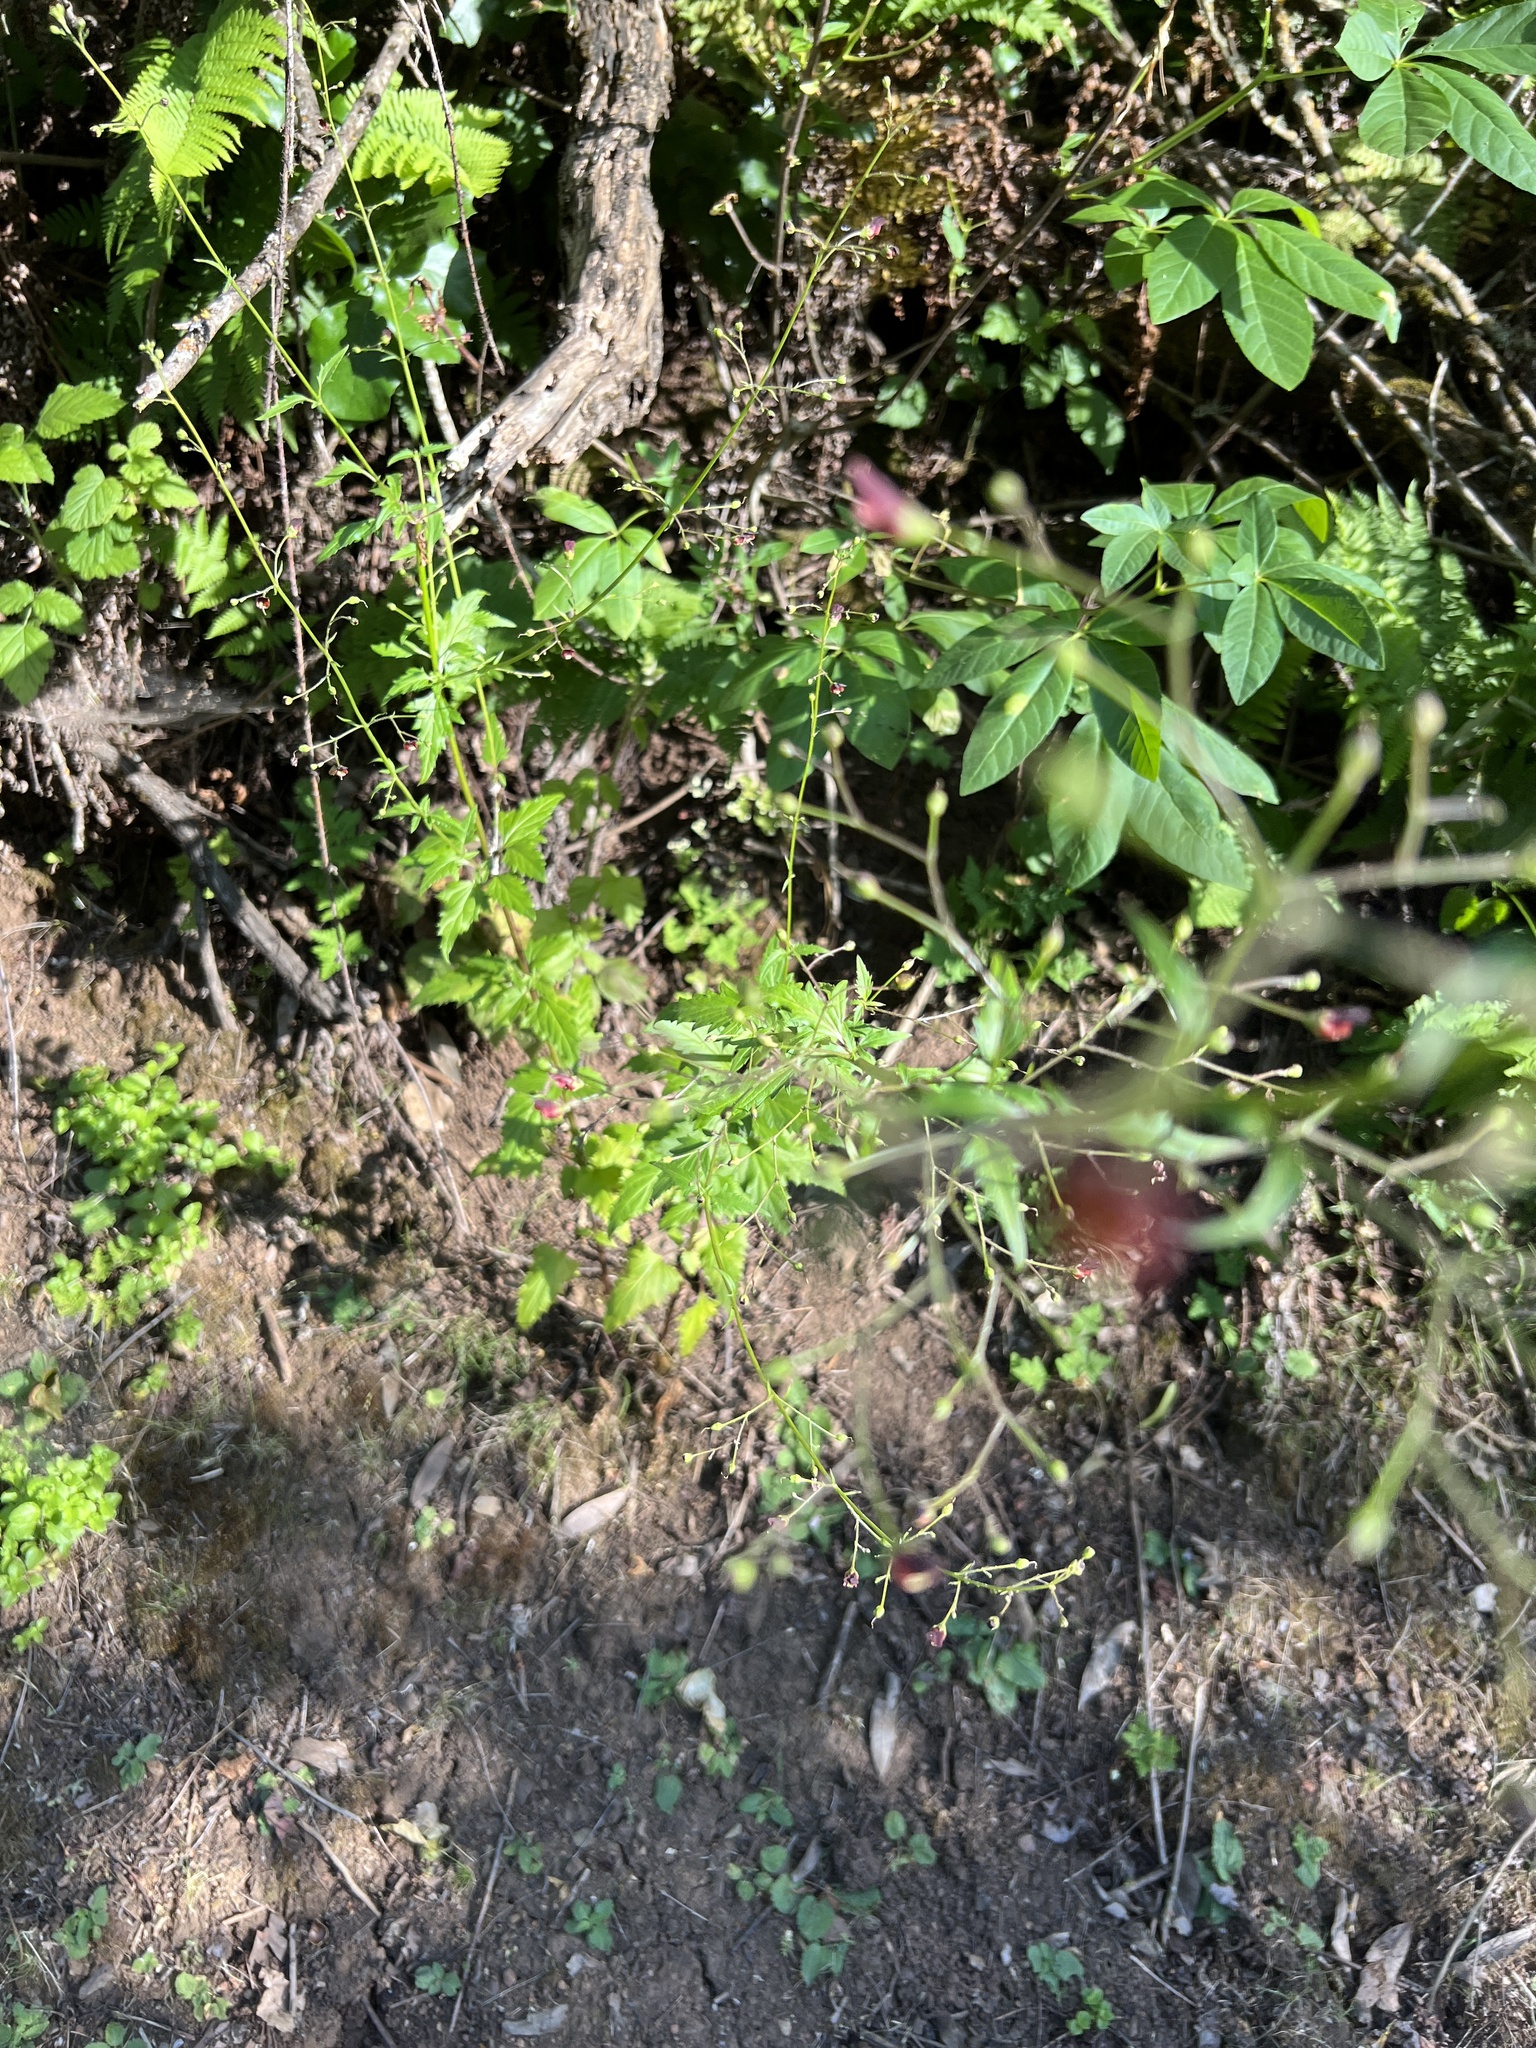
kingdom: Plantae
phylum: Tracheophyta
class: Magnoliopsida
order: Lamiales
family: Scrophulariaceae
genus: Scrophularia
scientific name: Scrophularia californica
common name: California figwort
